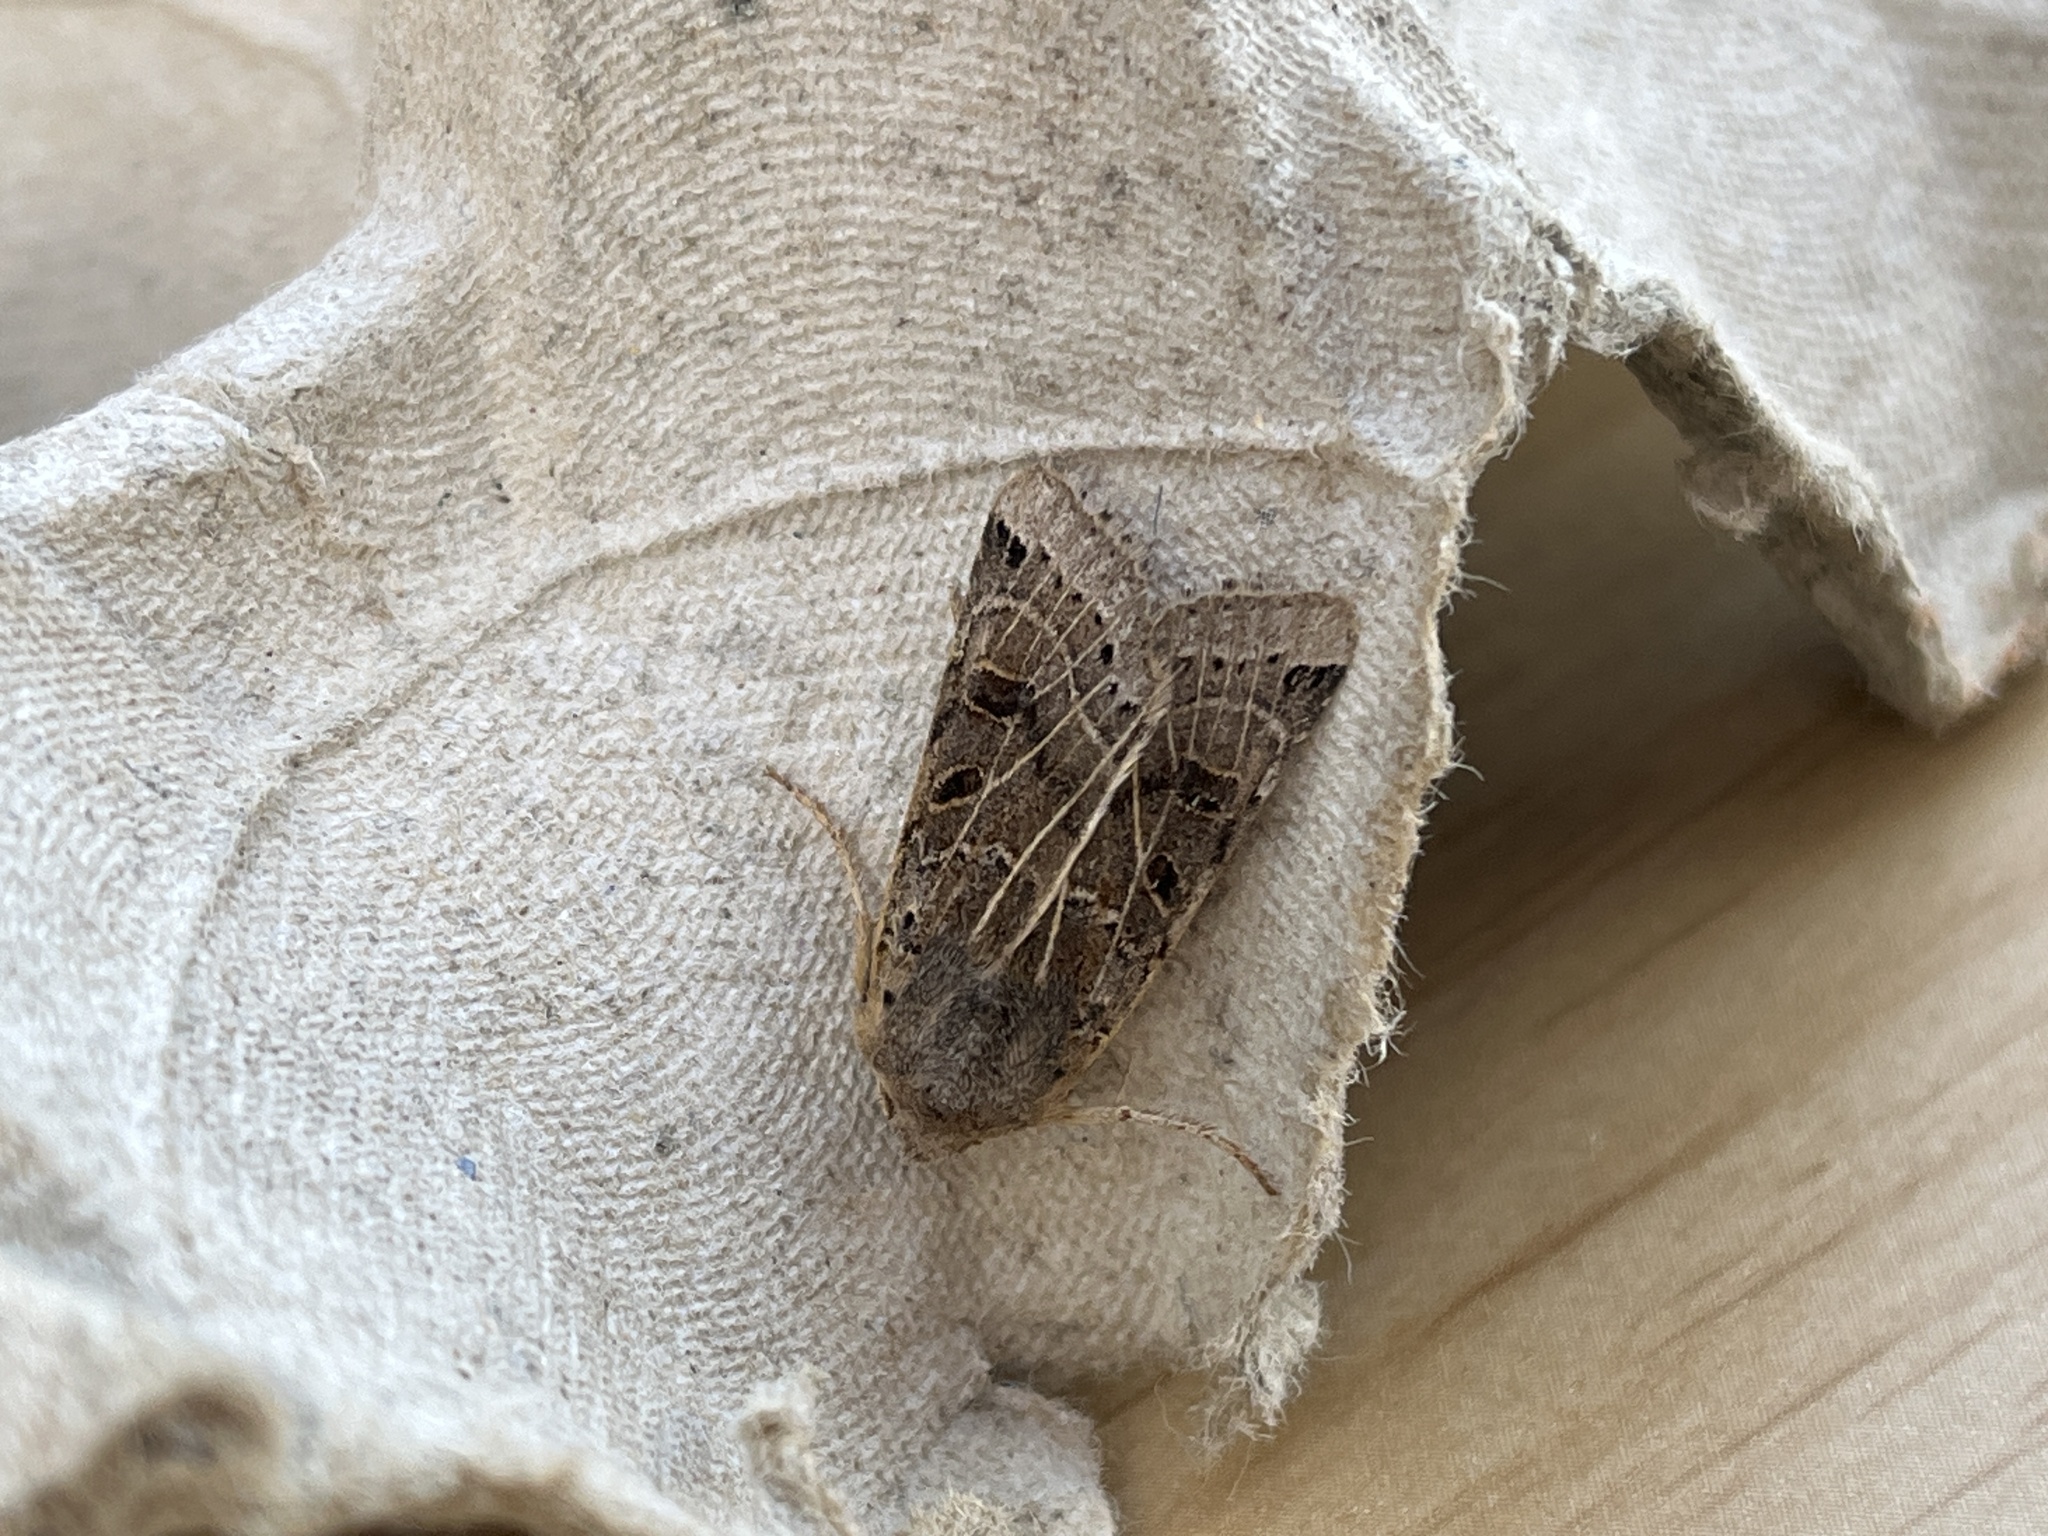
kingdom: Animalia
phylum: Arthropoda
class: Insecta
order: Lepidoptera
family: Noctuidae
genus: Agrochola
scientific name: Agrochola lunosa
